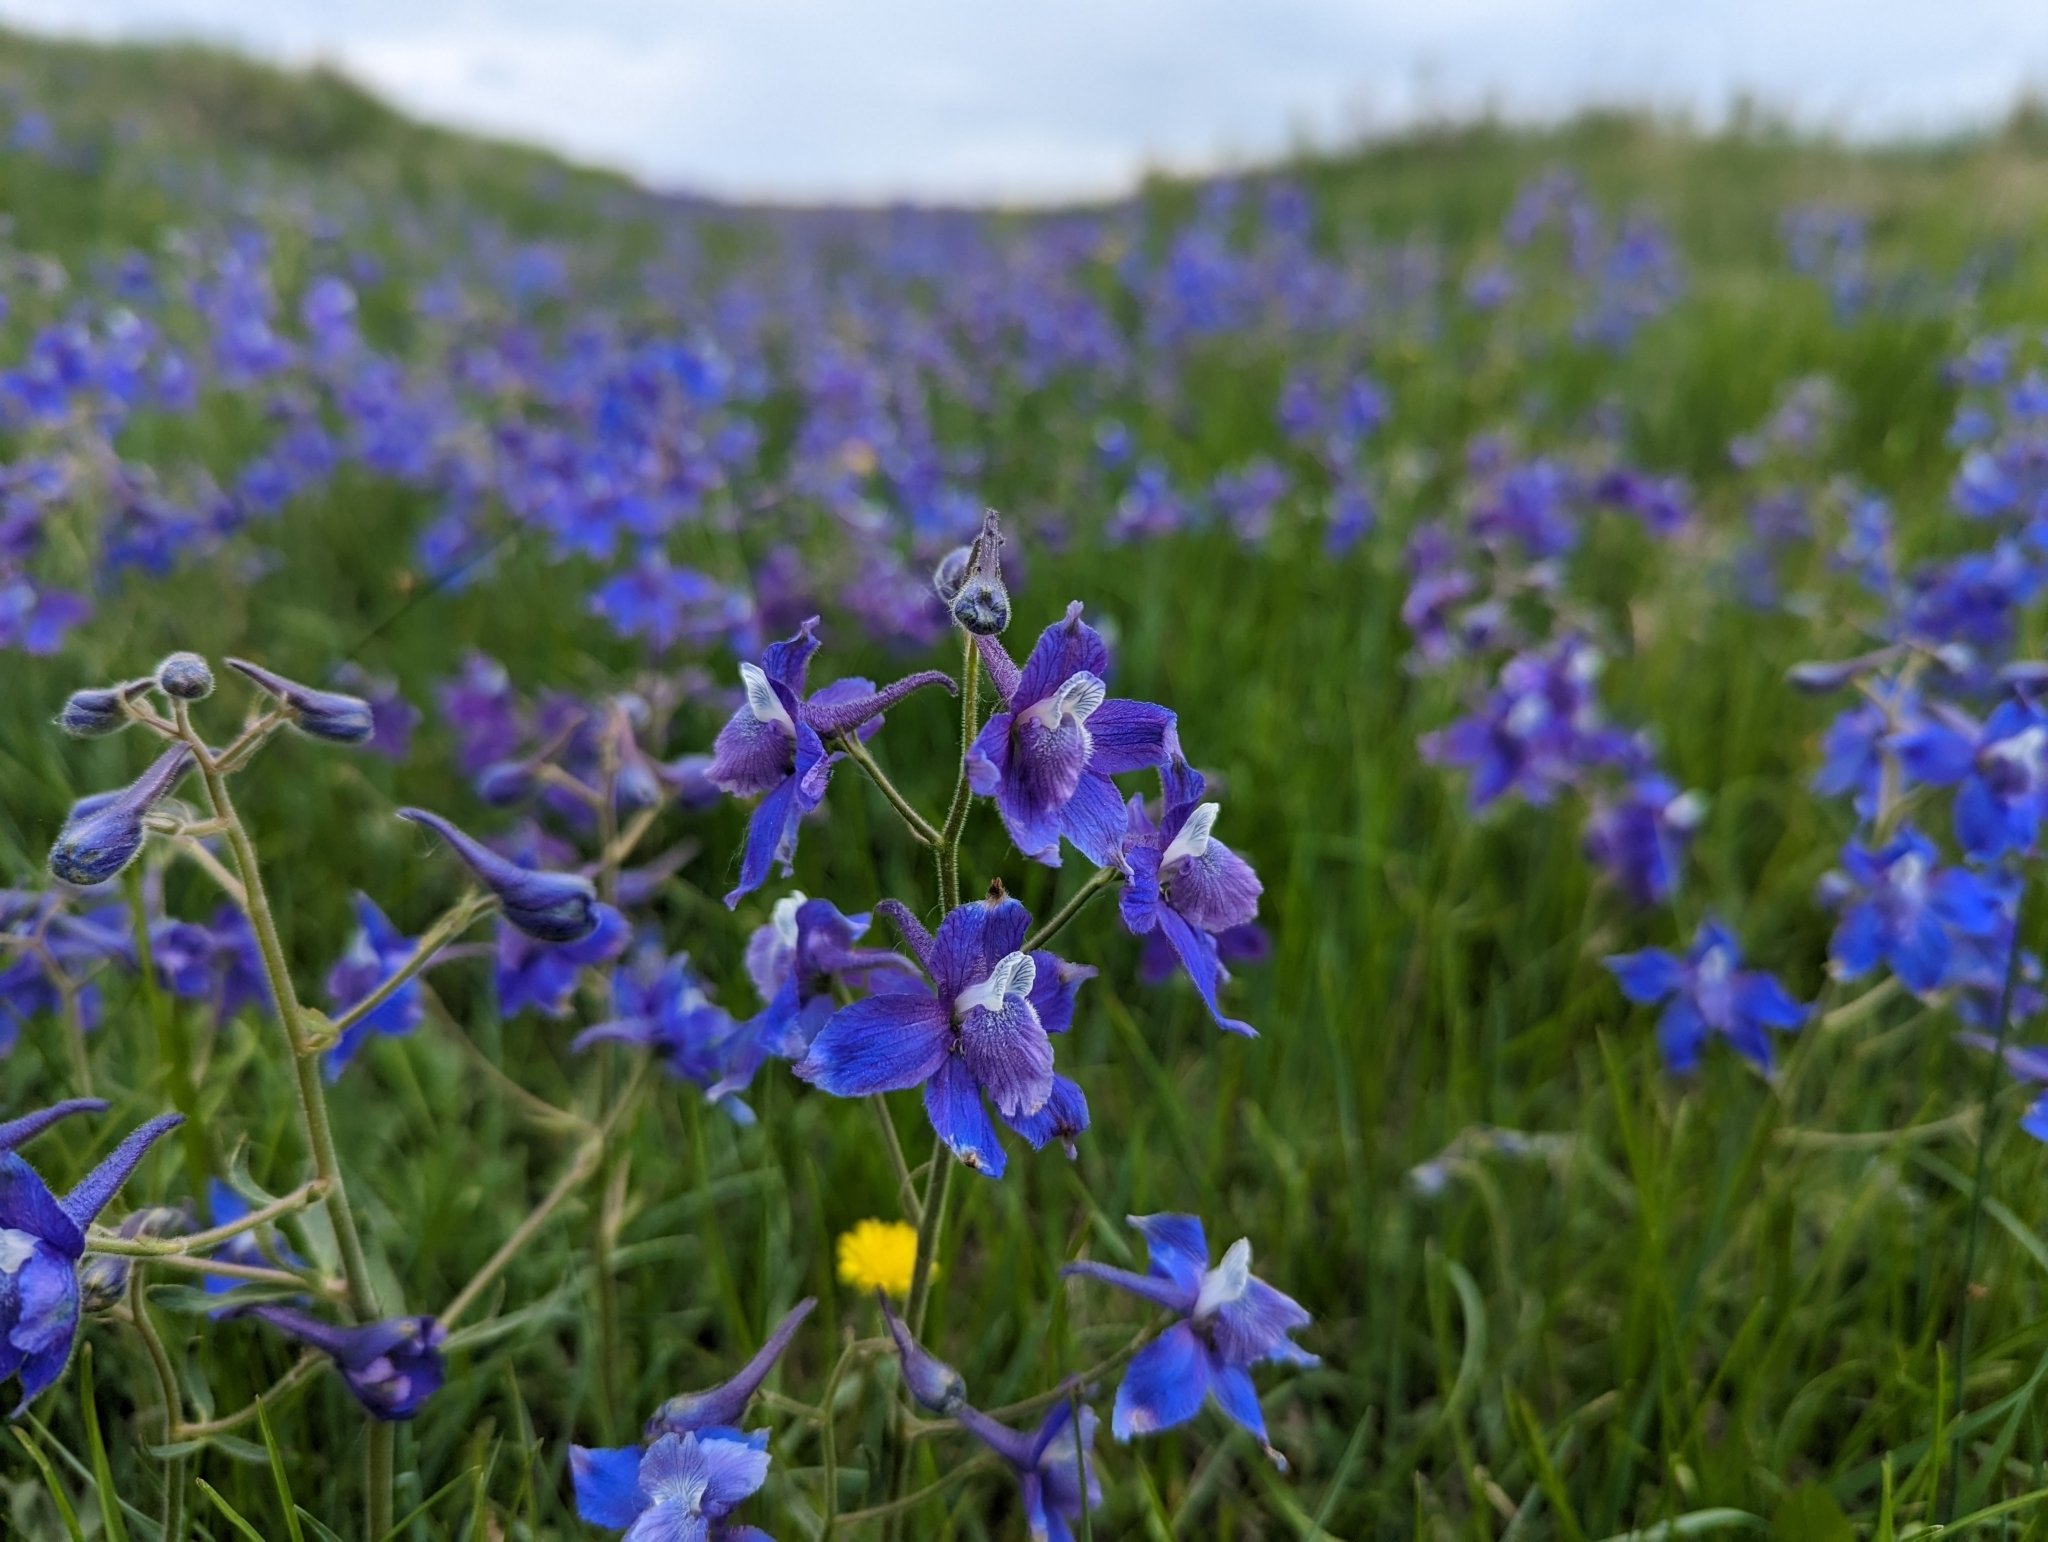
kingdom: Plantae
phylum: Tracheophyta
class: Magnoliopsida
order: Ranunculales
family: Ranunculaceae
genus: Delphinium
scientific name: Delphinium bicolor
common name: Low larkspur
